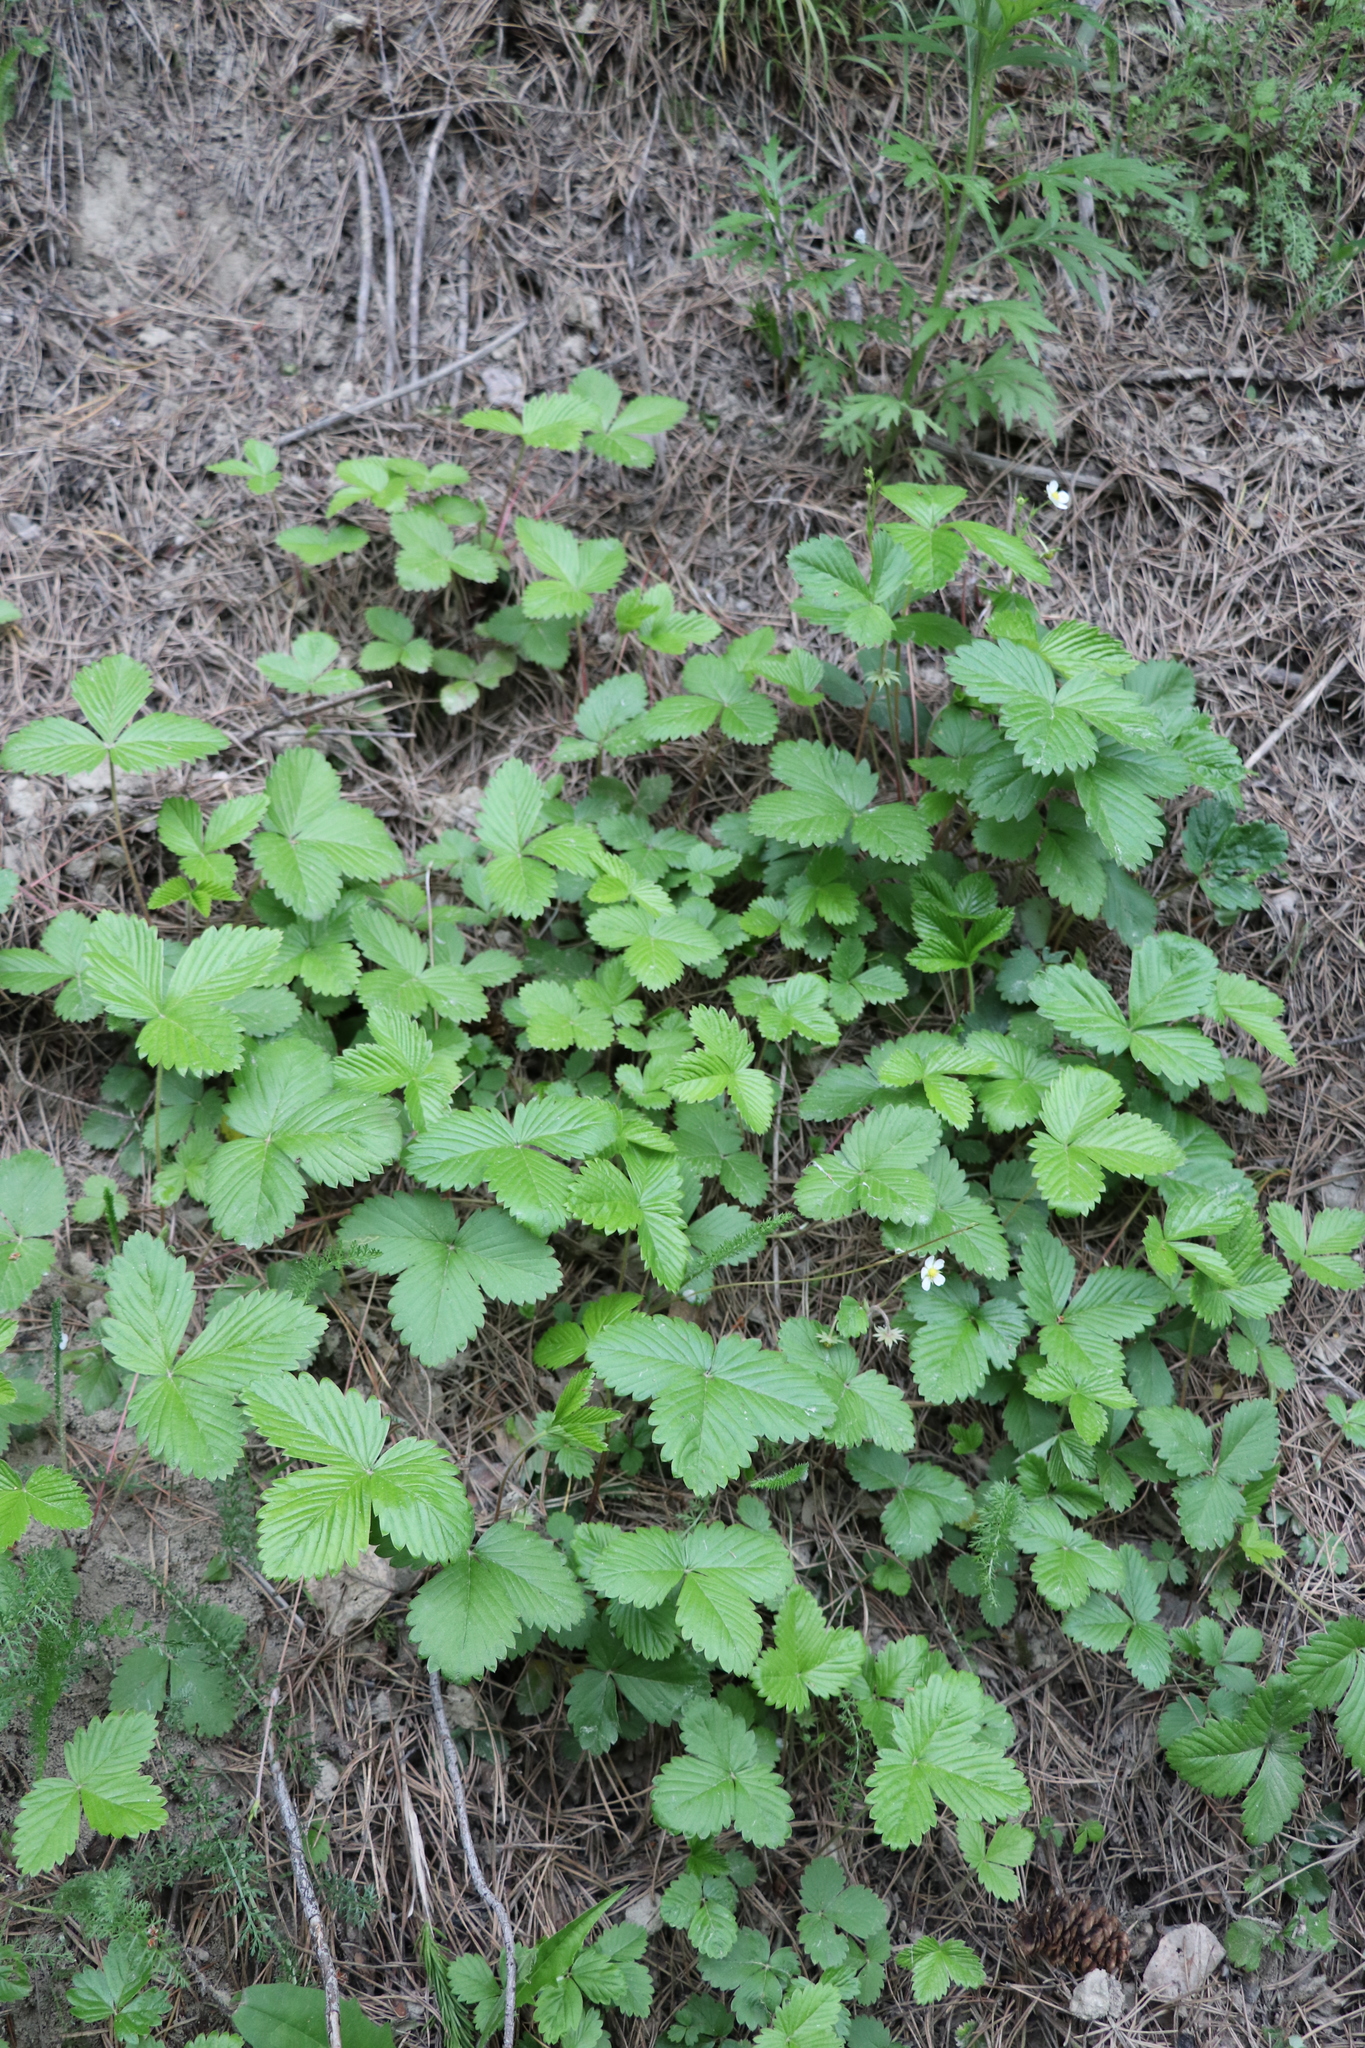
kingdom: Plantae
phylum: Tracheophyta
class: Magnoliopsida
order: Rosales
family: Rosaceae
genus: Fragaria
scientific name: Fragaria vesca
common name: Wild strawberry
